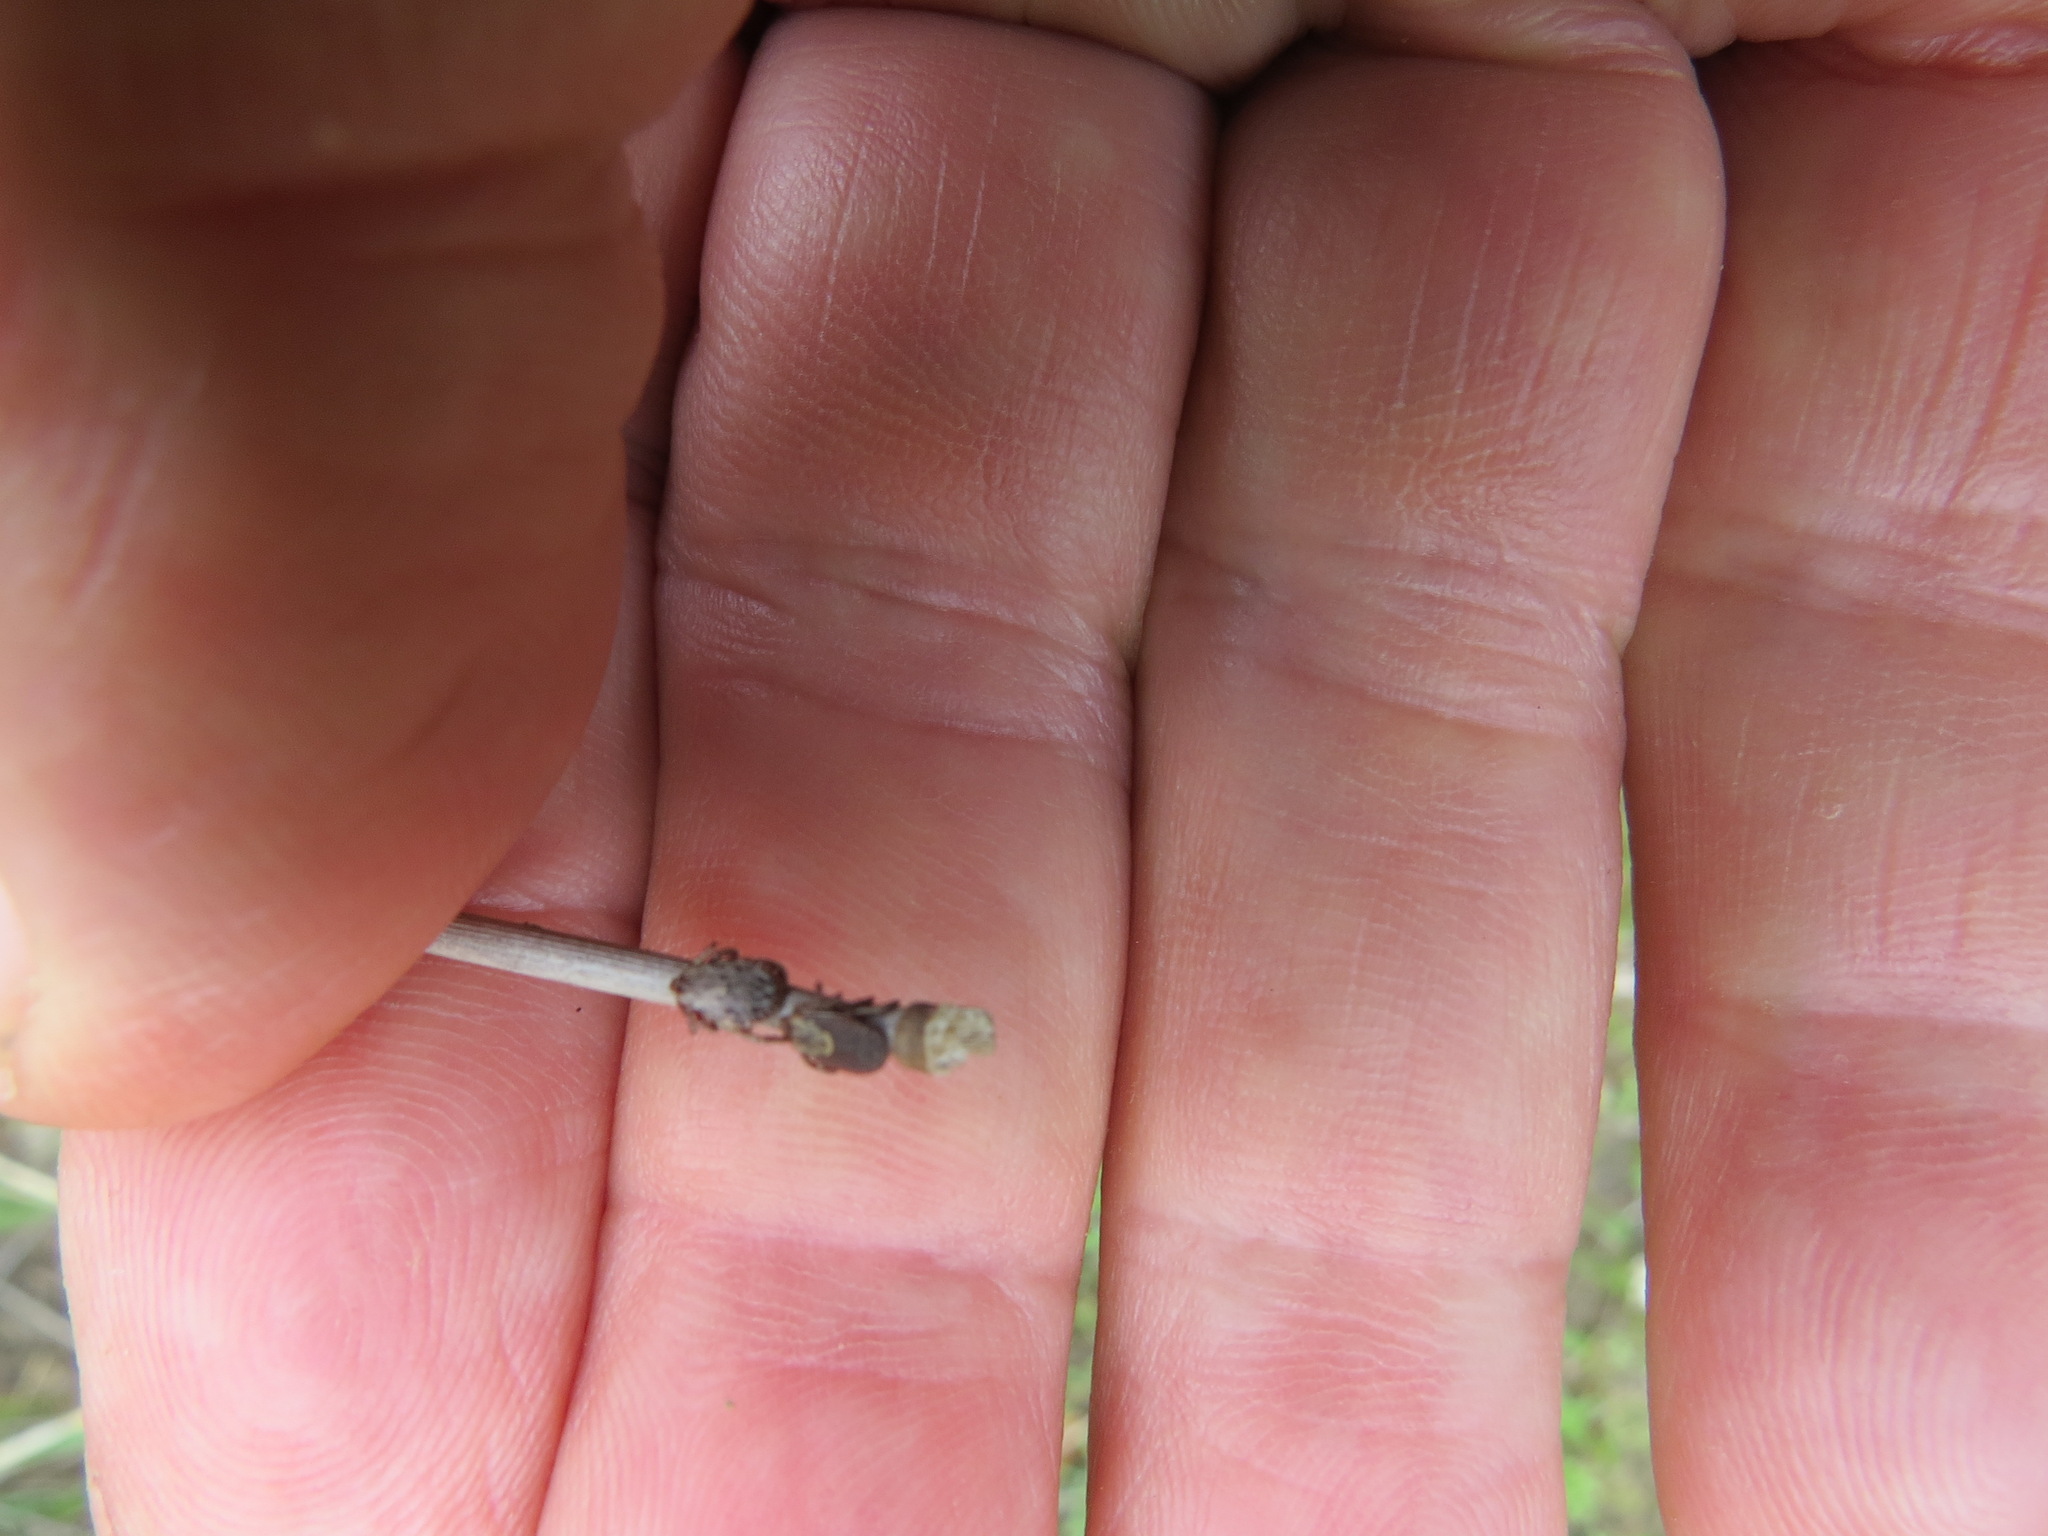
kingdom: Animalia
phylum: Arthropoda
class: Arachnida
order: Ixodida
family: Ixodidae
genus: Dermacentor
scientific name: Dermacentor occidentalis
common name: Net tick
